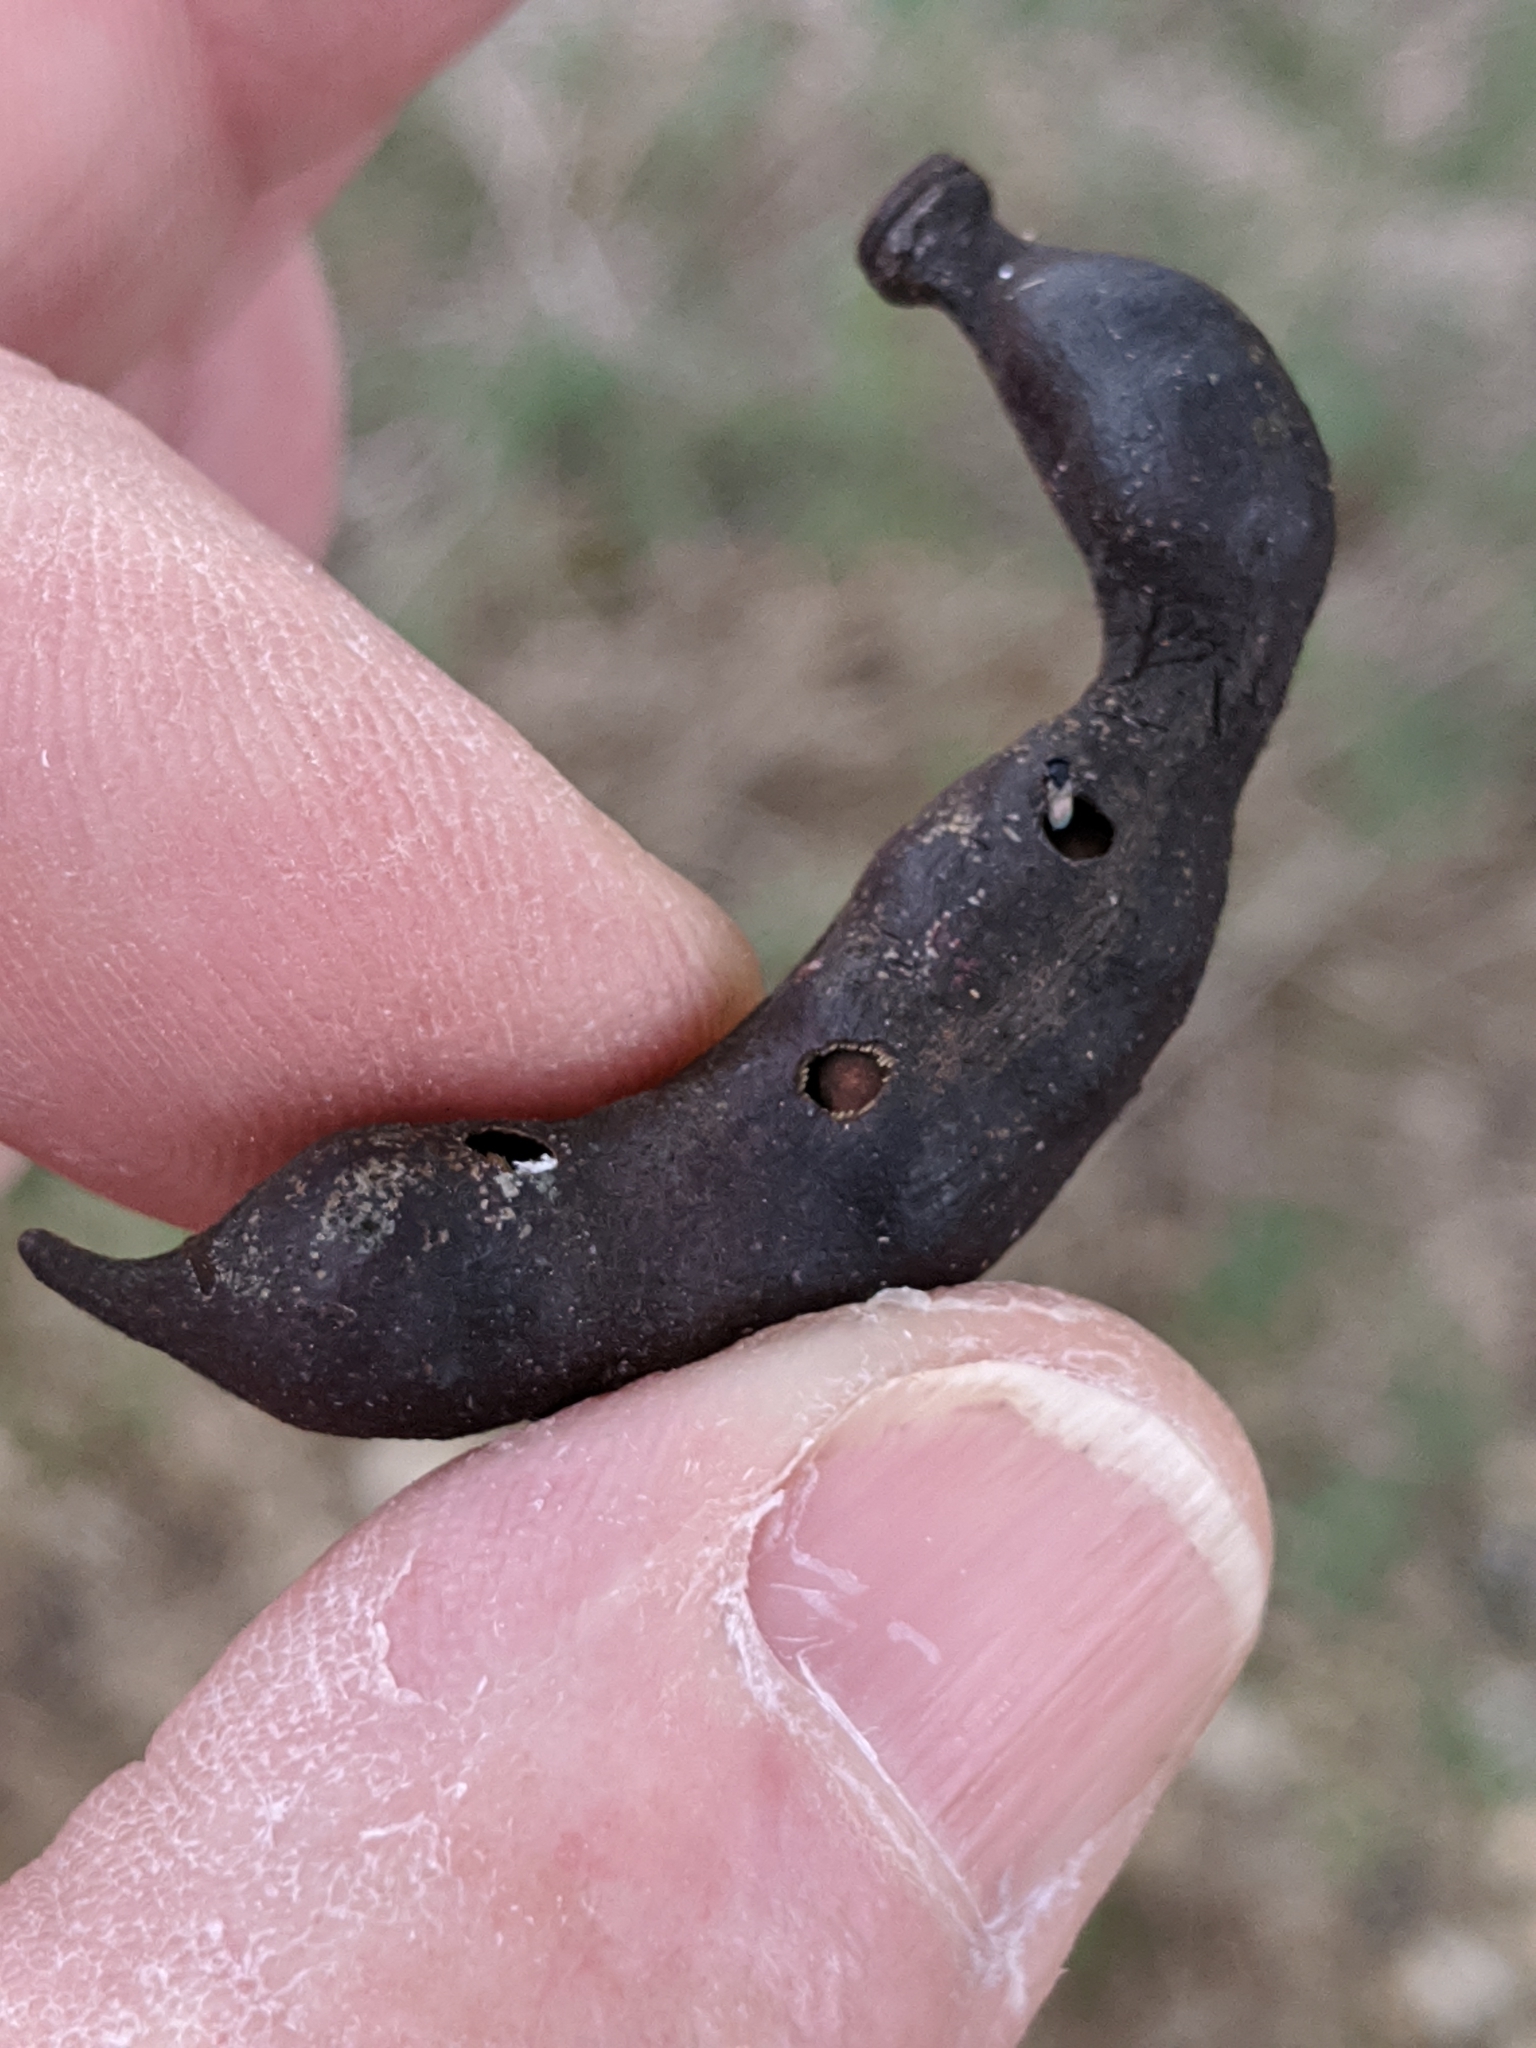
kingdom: Plantae
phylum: Tracheophyta
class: Magnoliopsida
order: Fabales
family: Fabaceae
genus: Vachellia
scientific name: Vachellia farnesiana
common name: Sweet acacia
